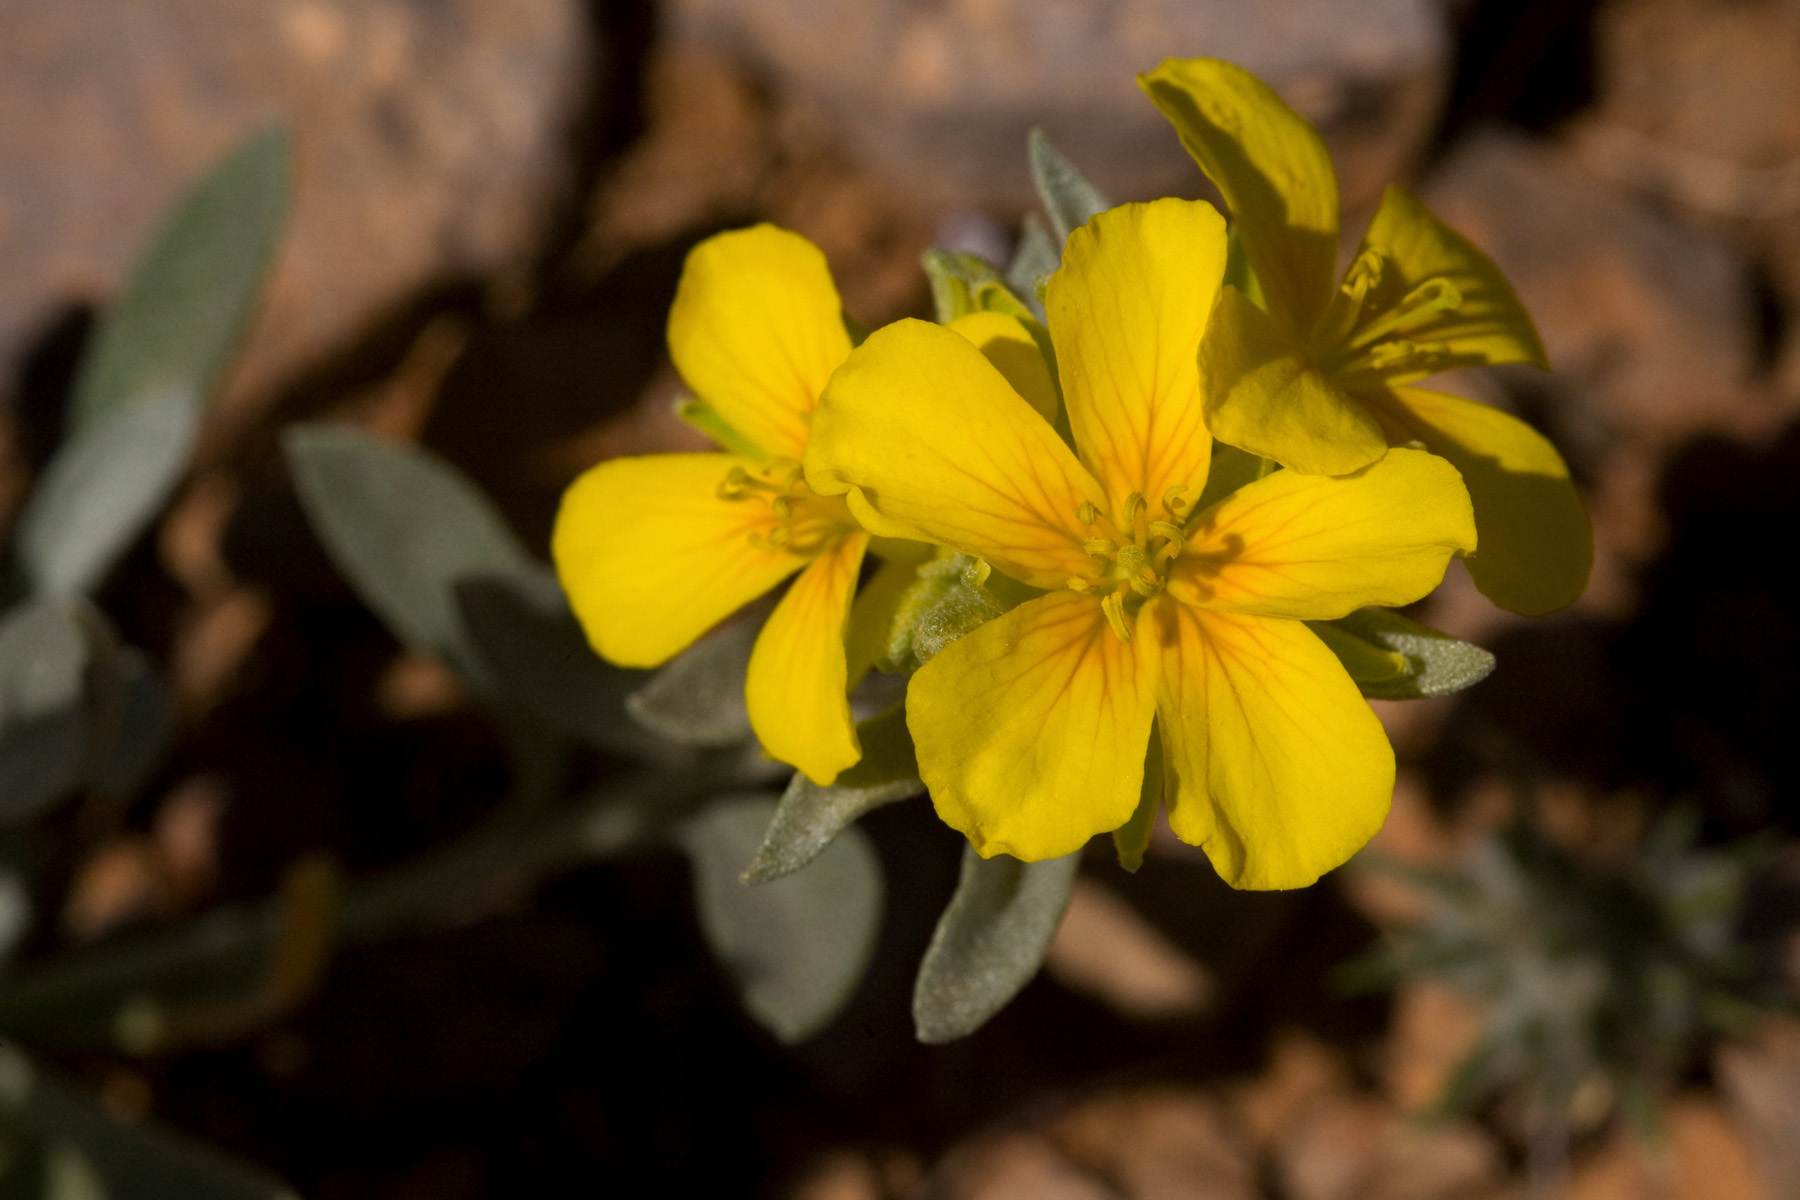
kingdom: Plantae
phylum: Tracheophyta
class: Magnoliopsida
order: Brassicales
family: Brassicaceae
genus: Physaria
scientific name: Physaria fendleri
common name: Fendler's bladderpod
